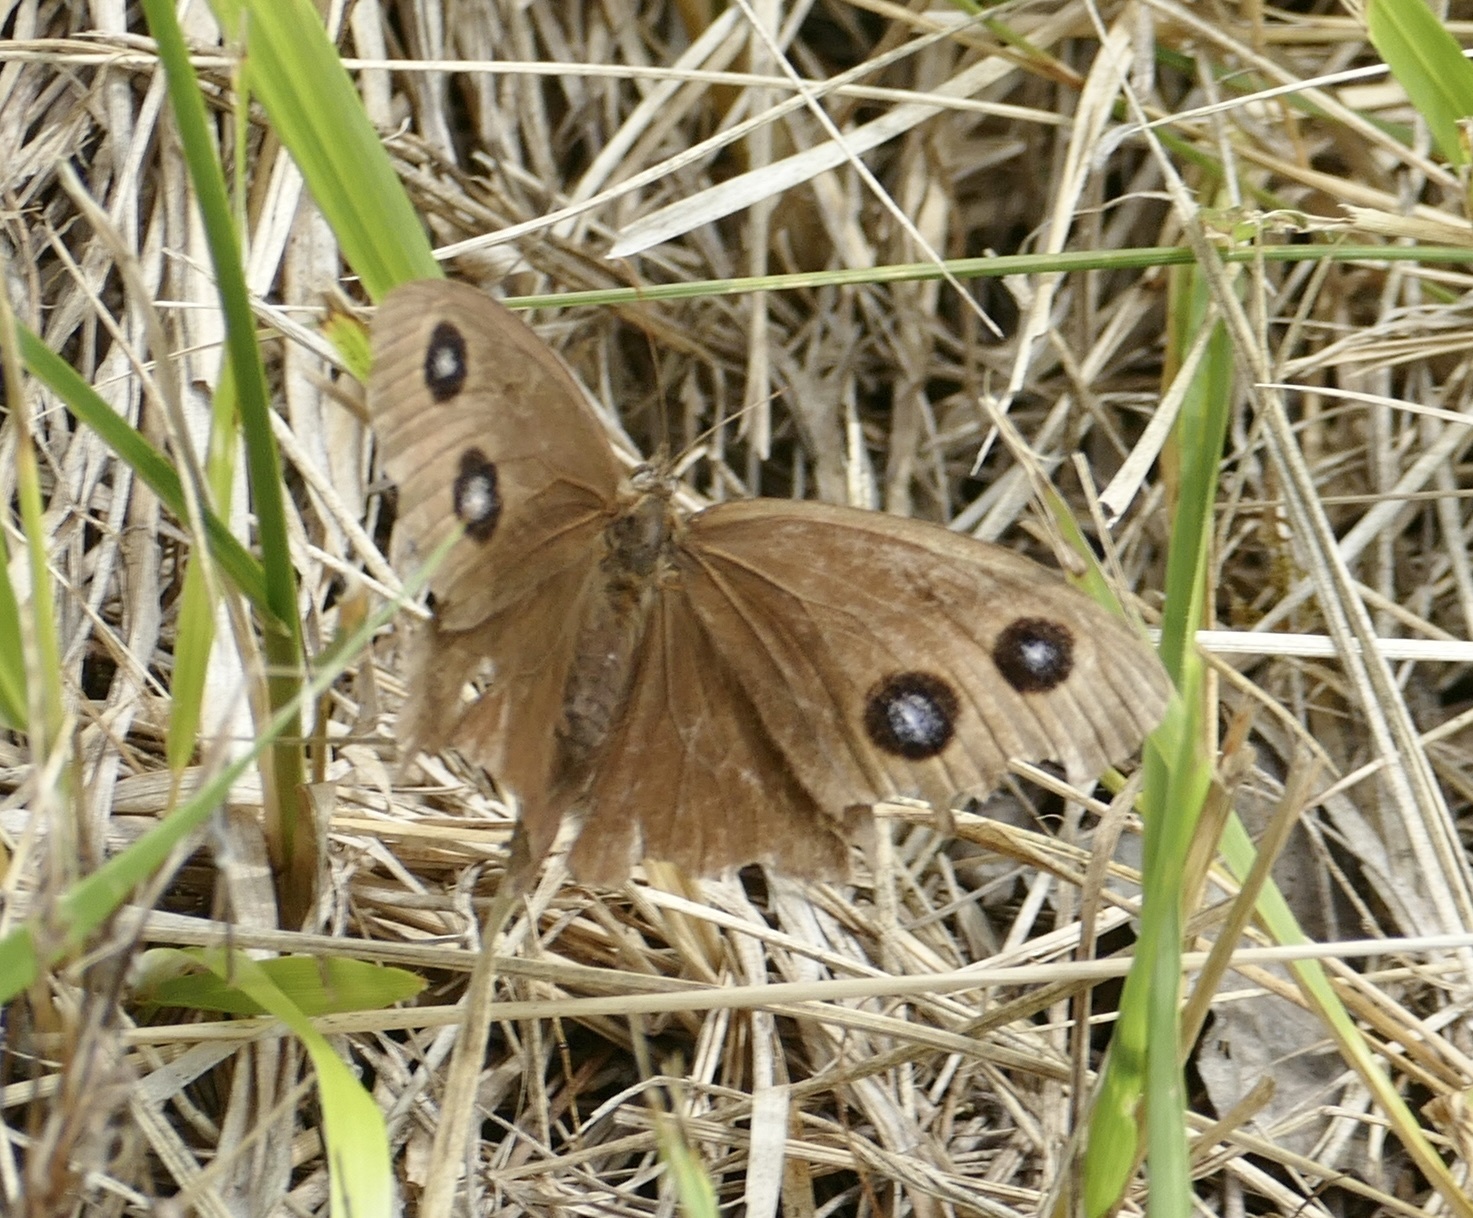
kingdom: Animalia
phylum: Arthropoda
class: Insecta
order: Lepidoptera
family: Nymphalidae
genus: Minois
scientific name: Minois dryas
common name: Dryad
